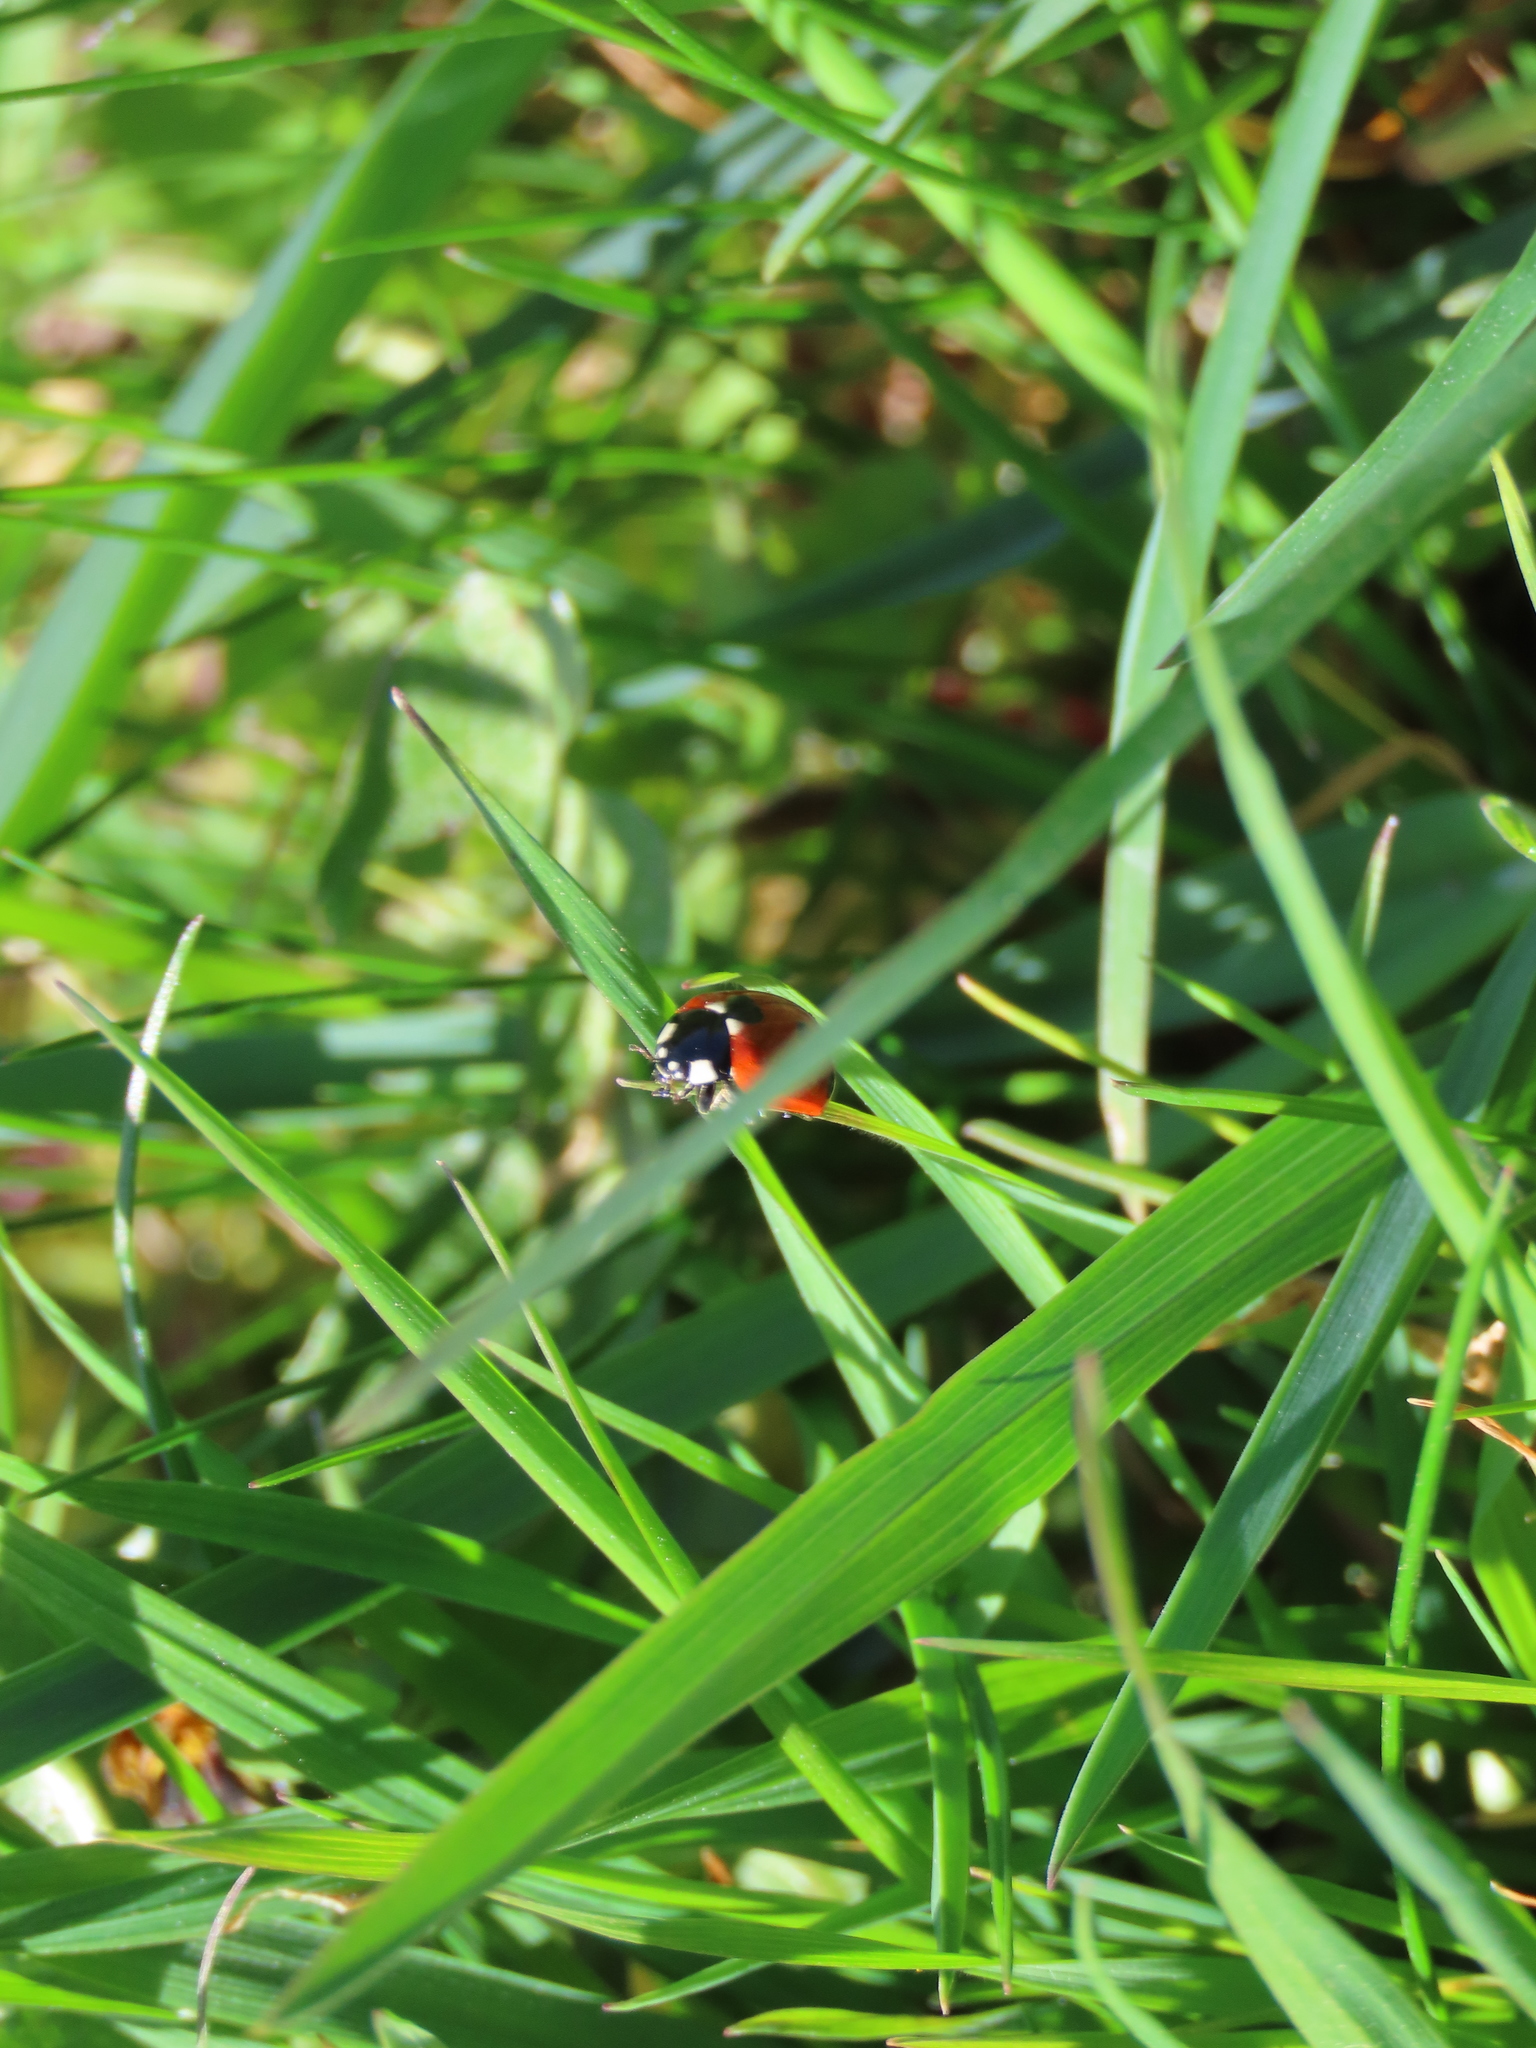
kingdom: Animalia
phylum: Arthropoda
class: Insecta
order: Coleoptera
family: Coccinellidae
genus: Coccinella
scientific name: Coccinella septempunctata
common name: Sevenspotted lady beetle
